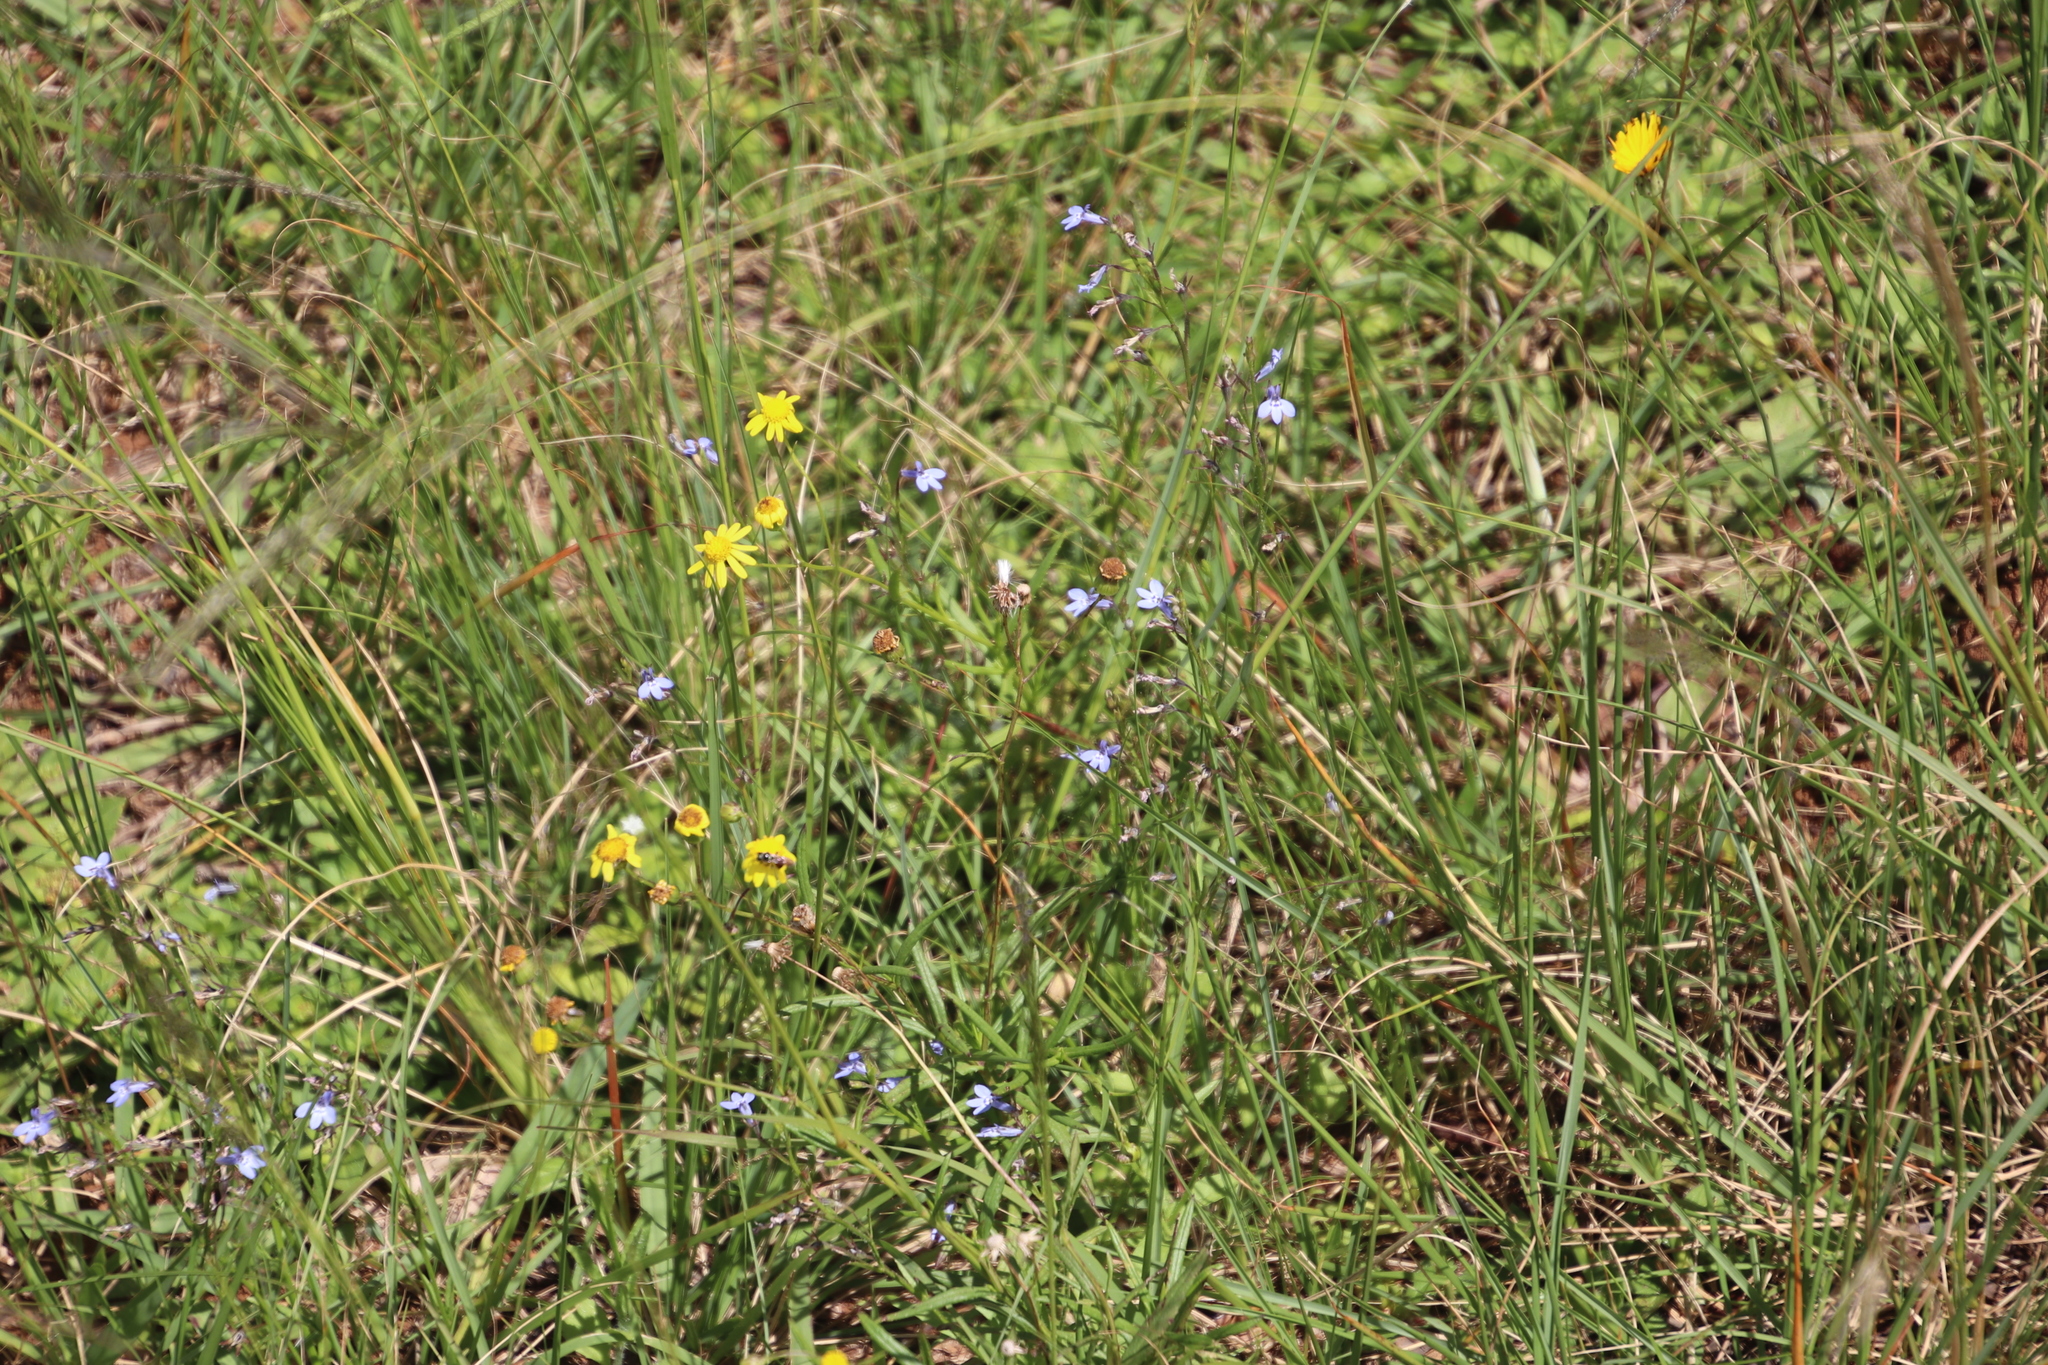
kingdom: Plantae
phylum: Tracheophyta
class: Magnoliopsida
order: Asterales
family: Campanulaceae
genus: Lobelia
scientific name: Lobelia flaccida
